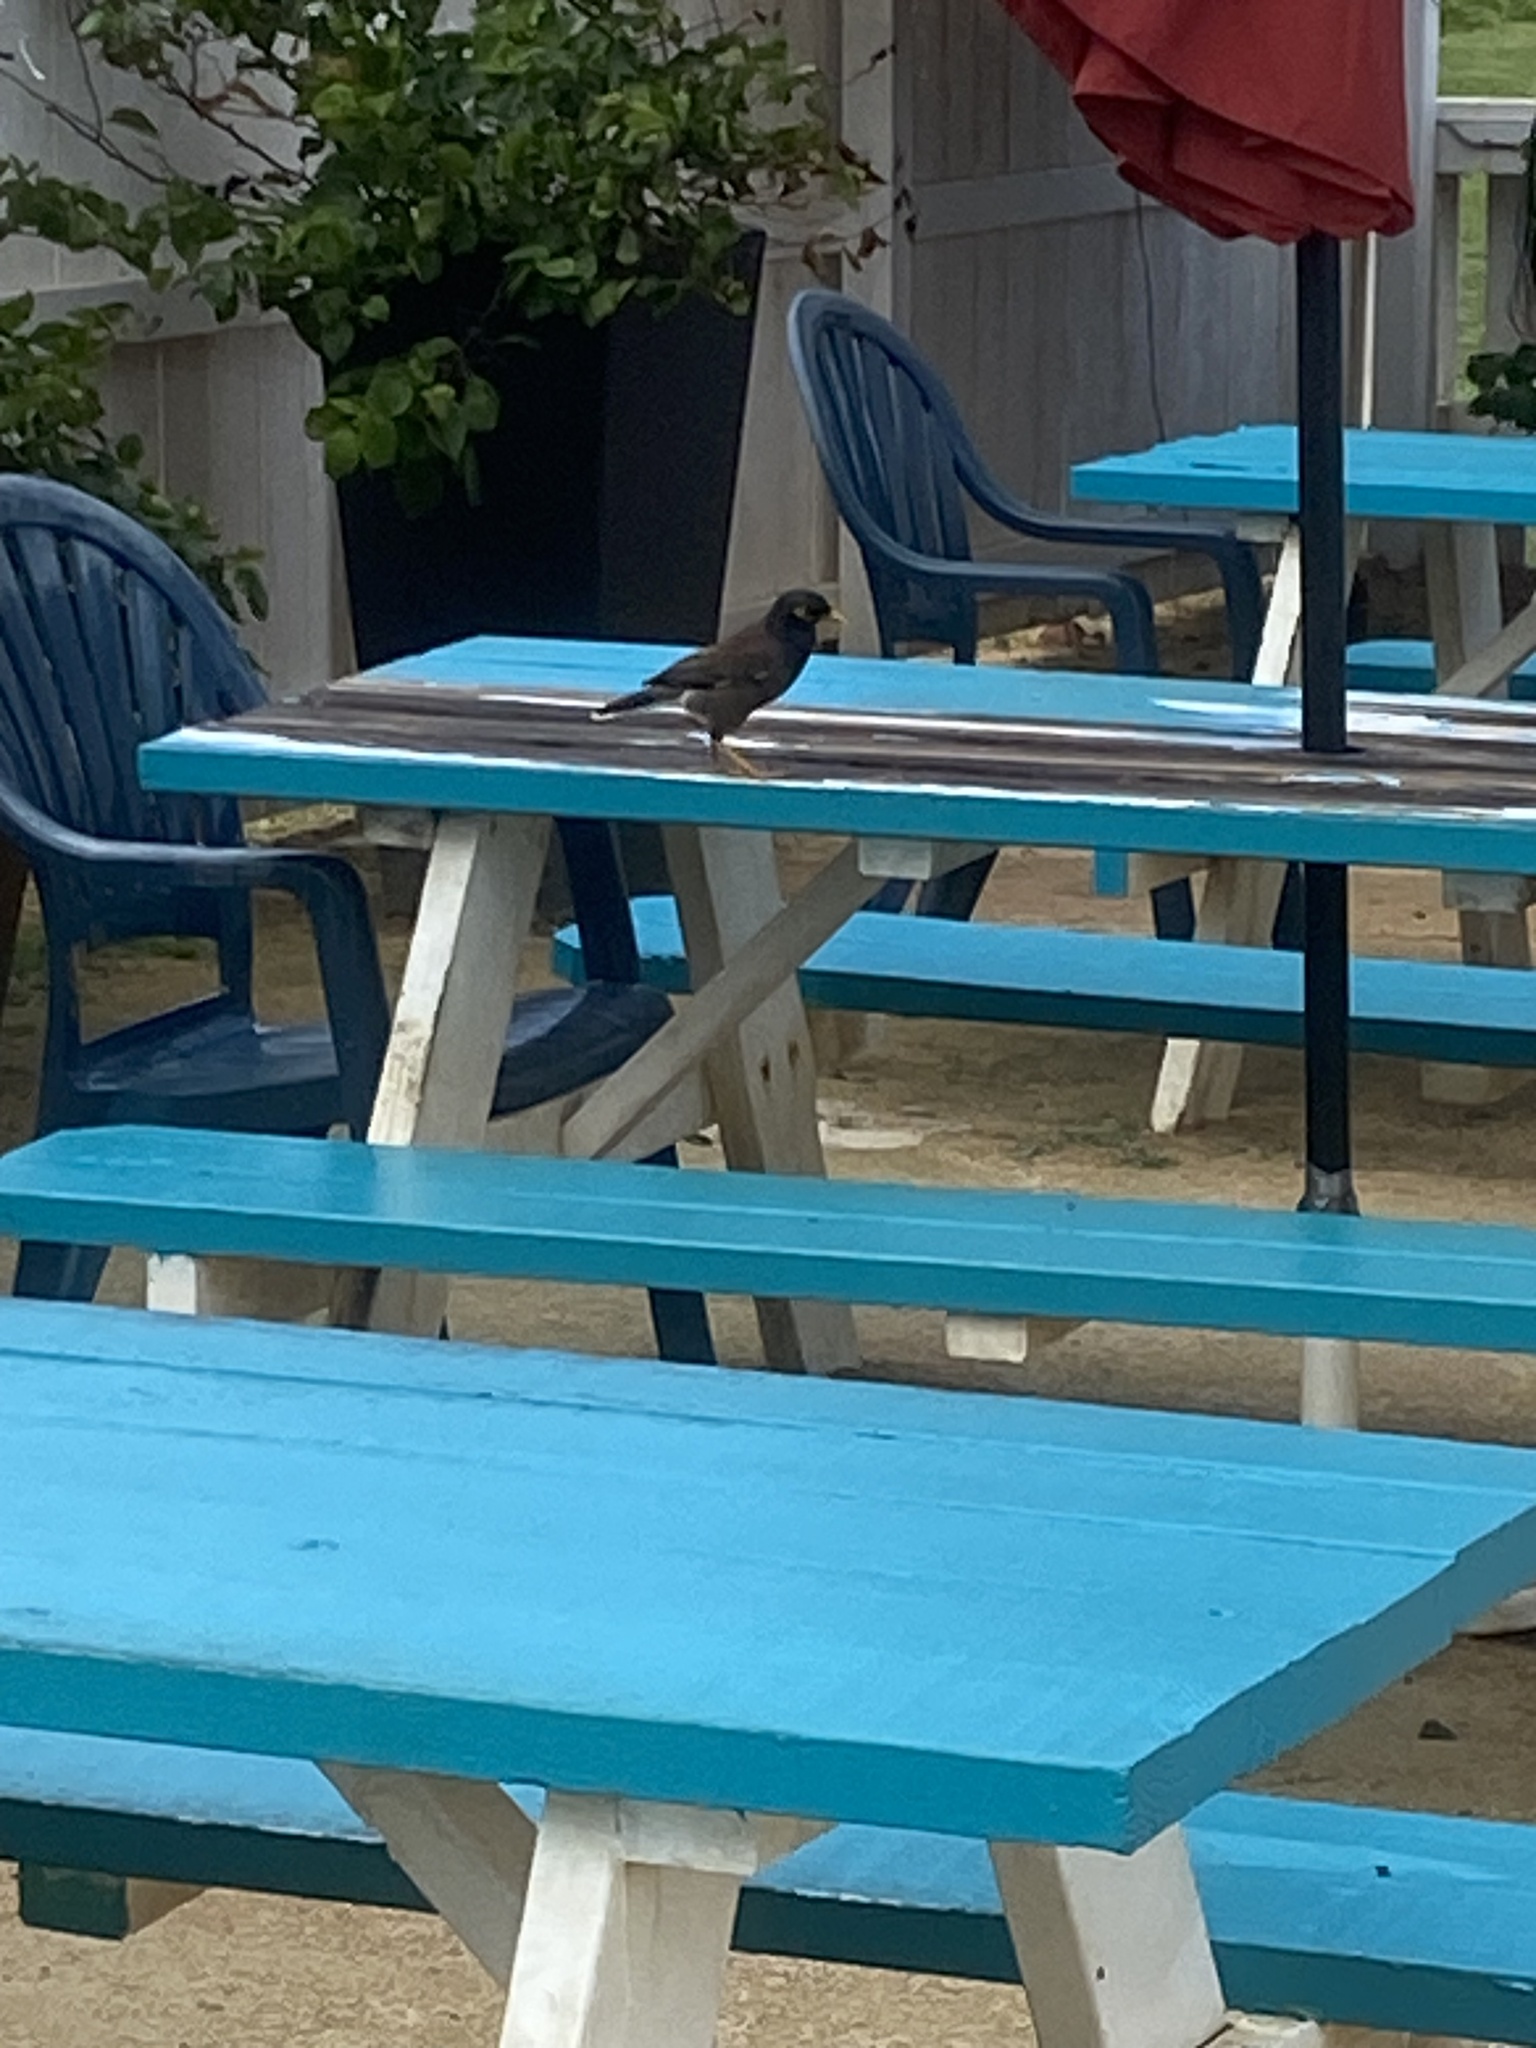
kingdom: Animalia
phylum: Chordata
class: Aves
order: Passeriformes
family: Sturnidae
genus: Acridotheres
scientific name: Acridotheres tristis
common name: Common myna
